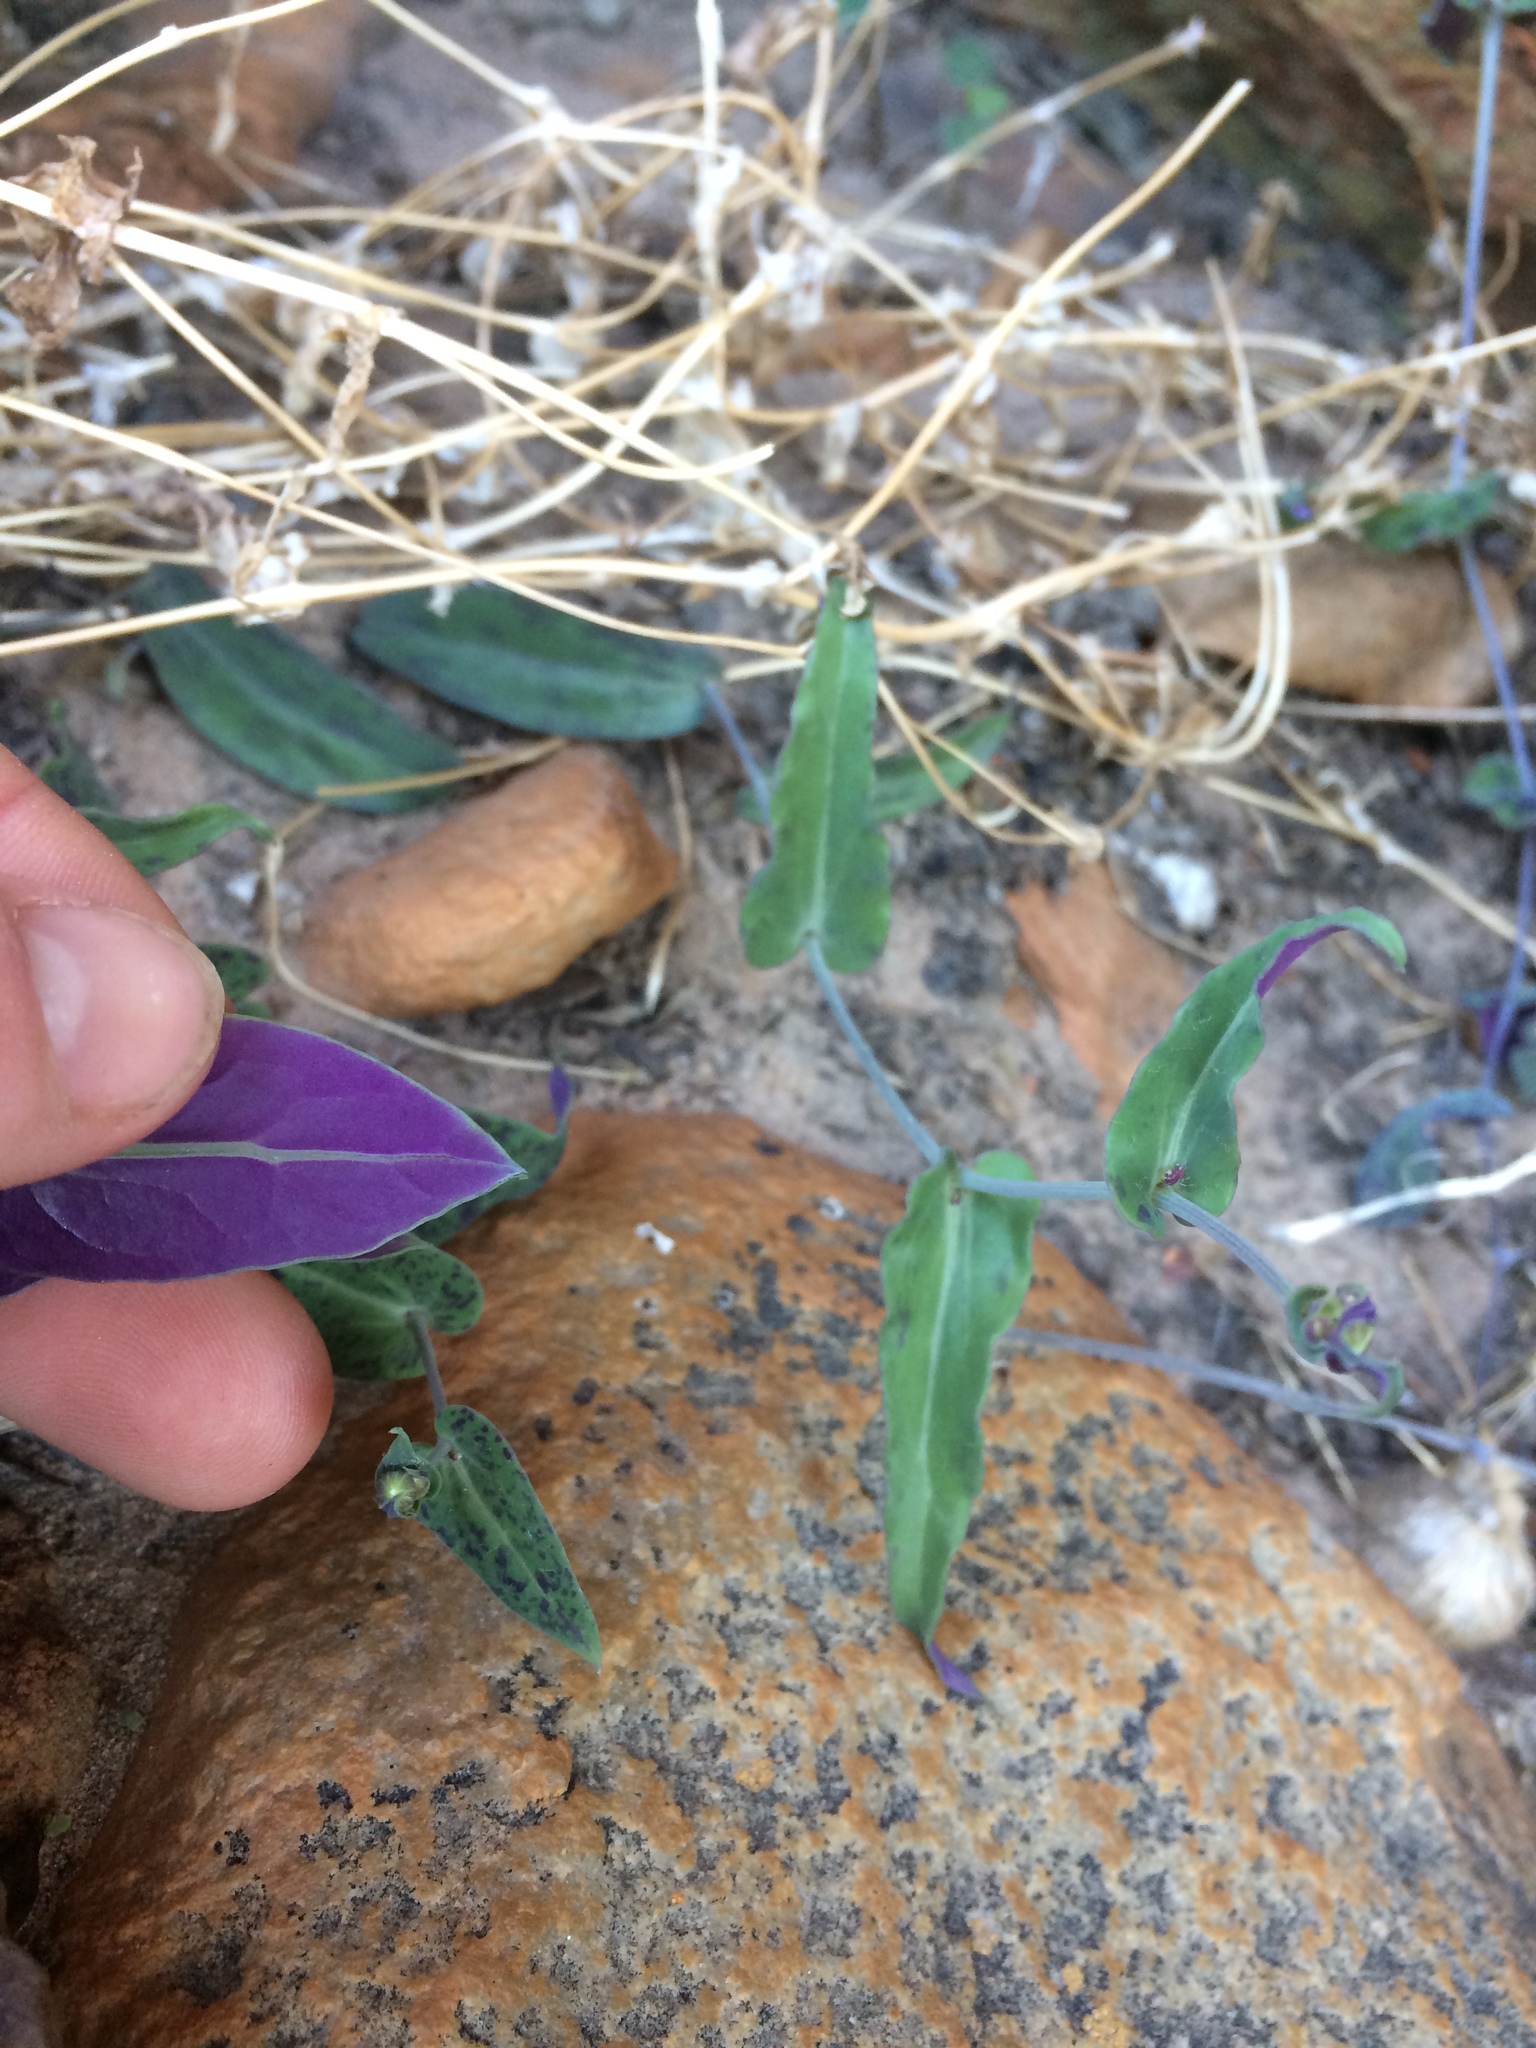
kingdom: Plantae
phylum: Tracheophyta
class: Magnoliopsida
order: Asterales
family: Asteraceae
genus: Othonna
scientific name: Othonna perfoliata
